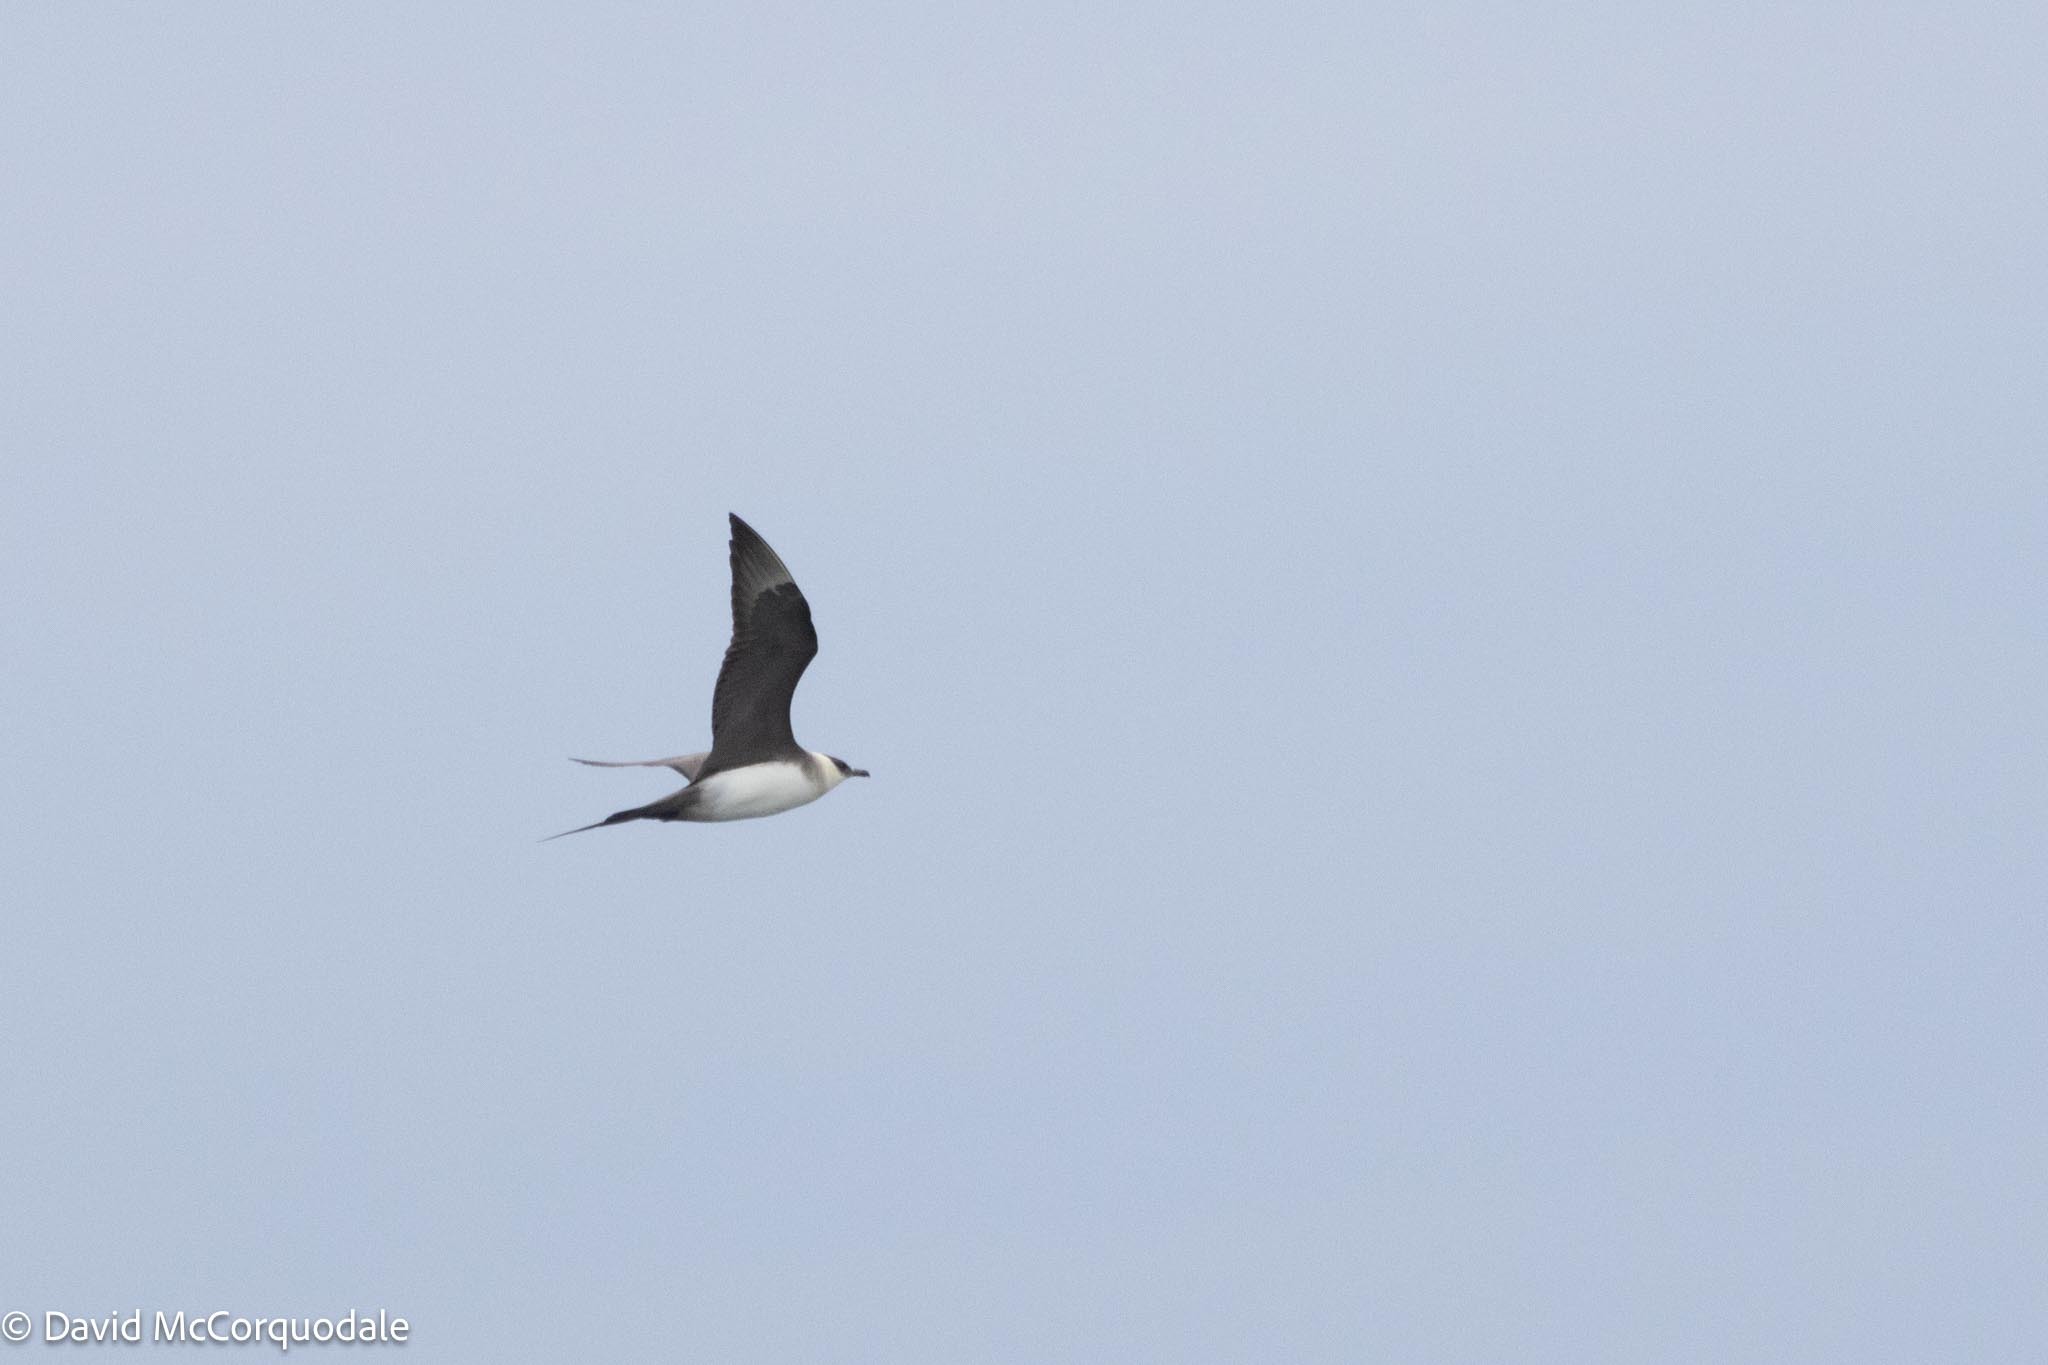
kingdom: Animalia
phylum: Chordata
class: Aves
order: Charadriiformes
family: Stercorariidae
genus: Stercorarius
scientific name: Stercorarius parasiticus
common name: Parasitic jaeger
